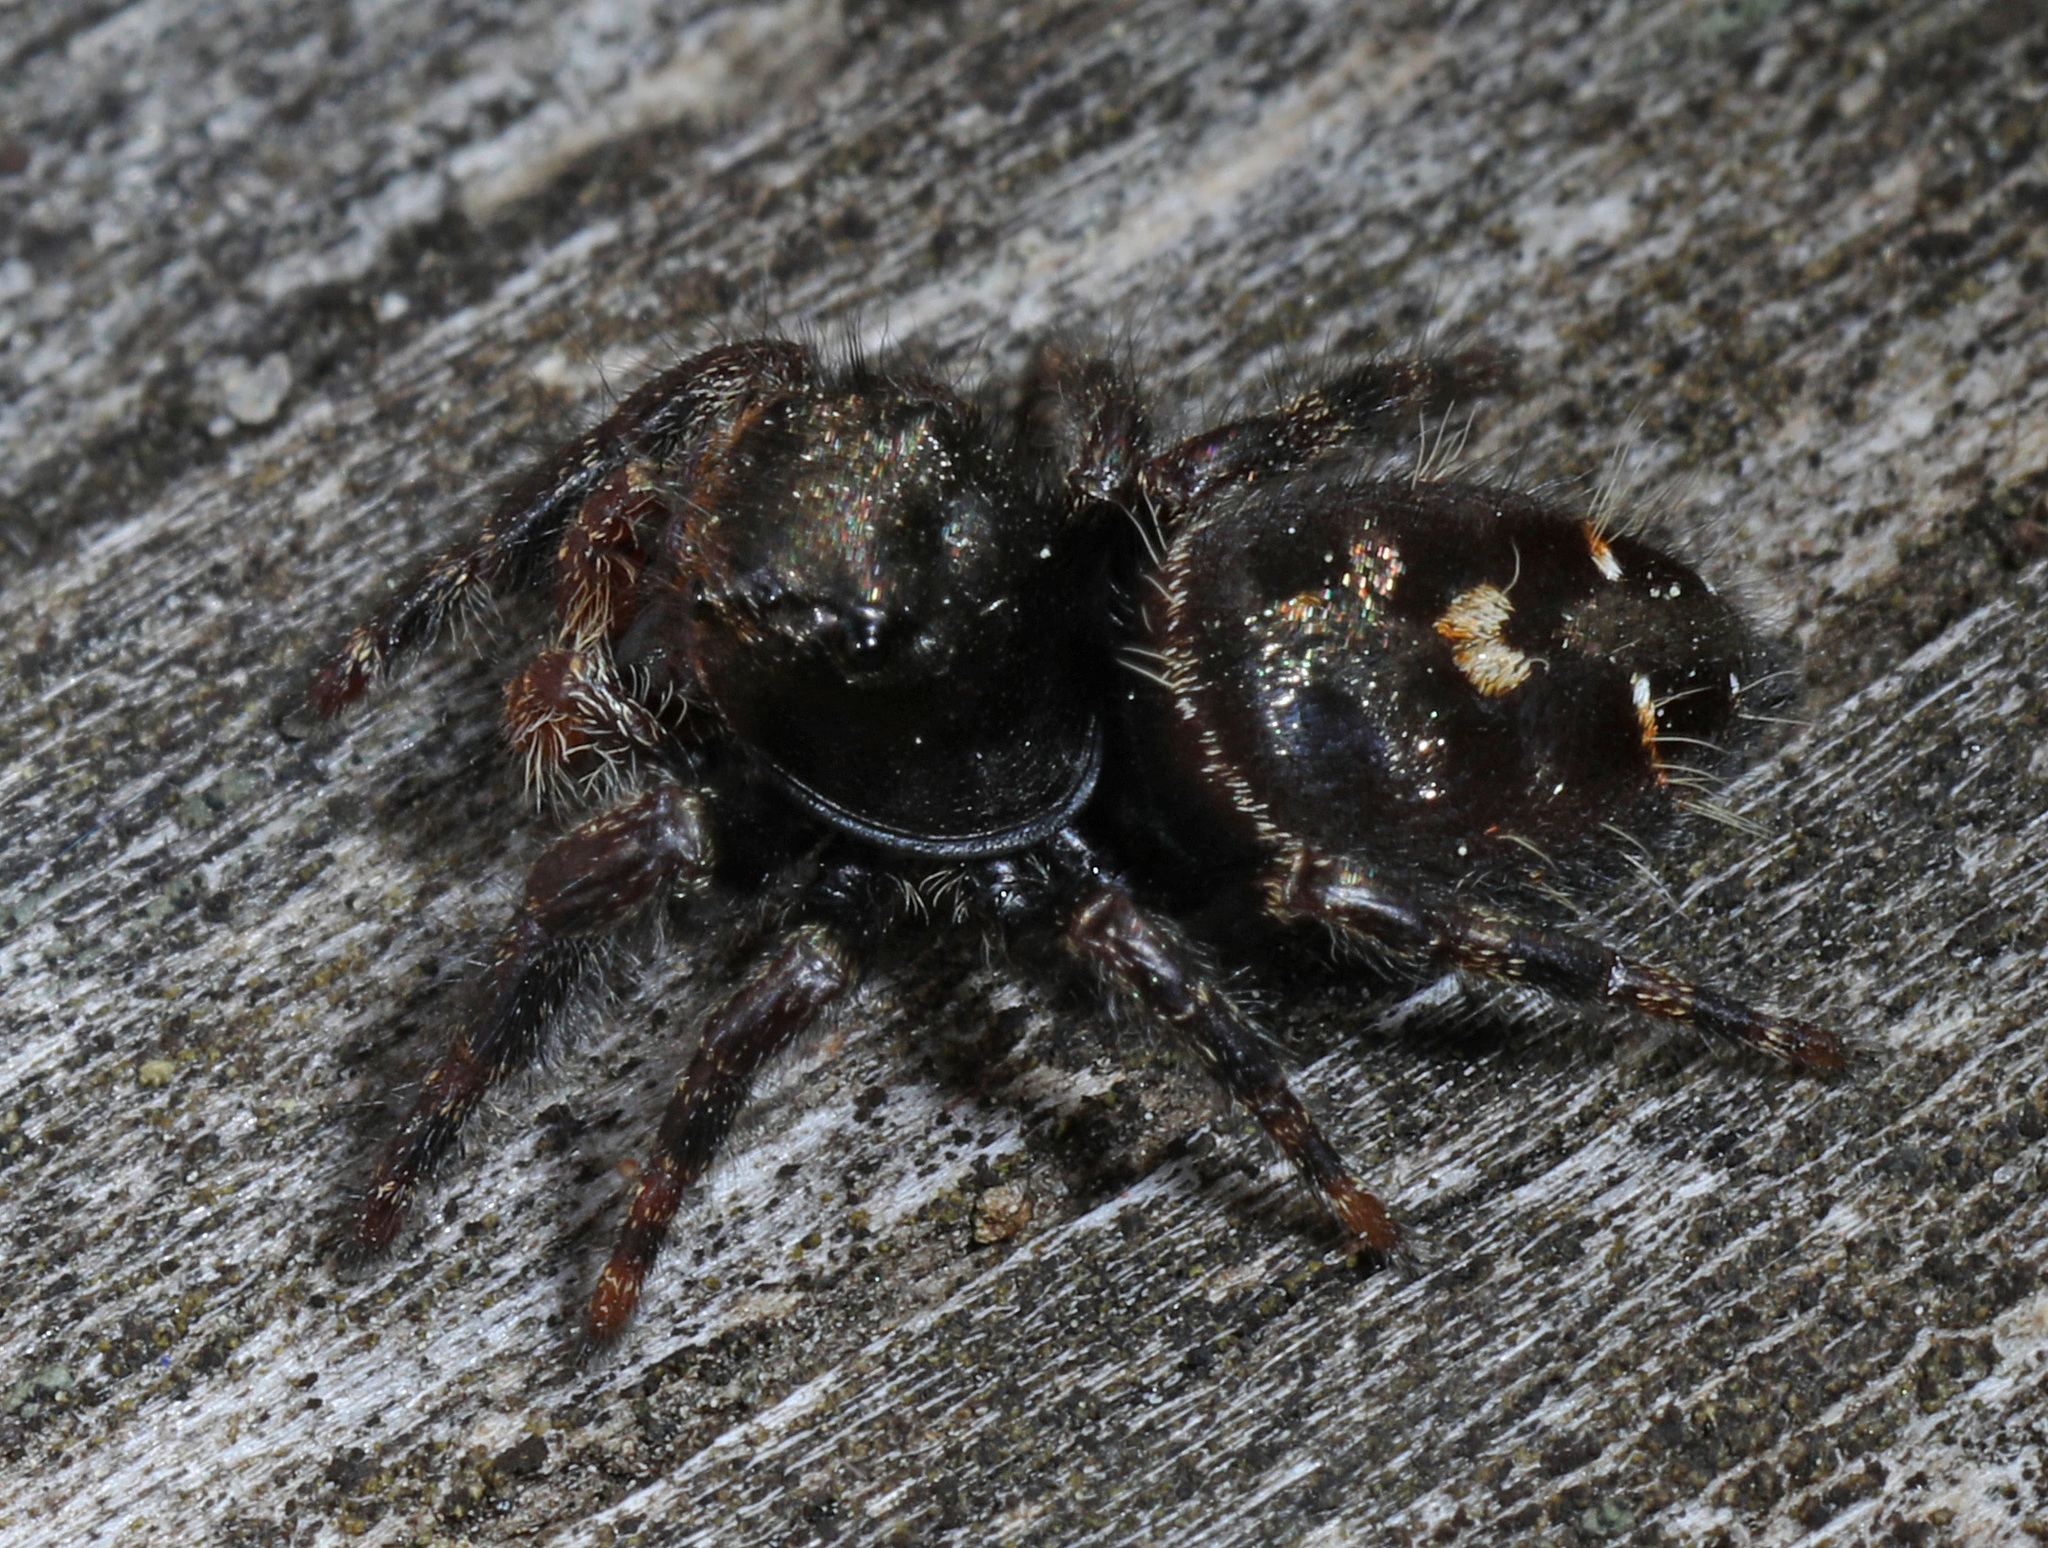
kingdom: Animalia
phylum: Arthropoda
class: Arachnida
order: Araneae
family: Salticidae
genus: Phidippus
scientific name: Phidippus audax
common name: Bold jumper
